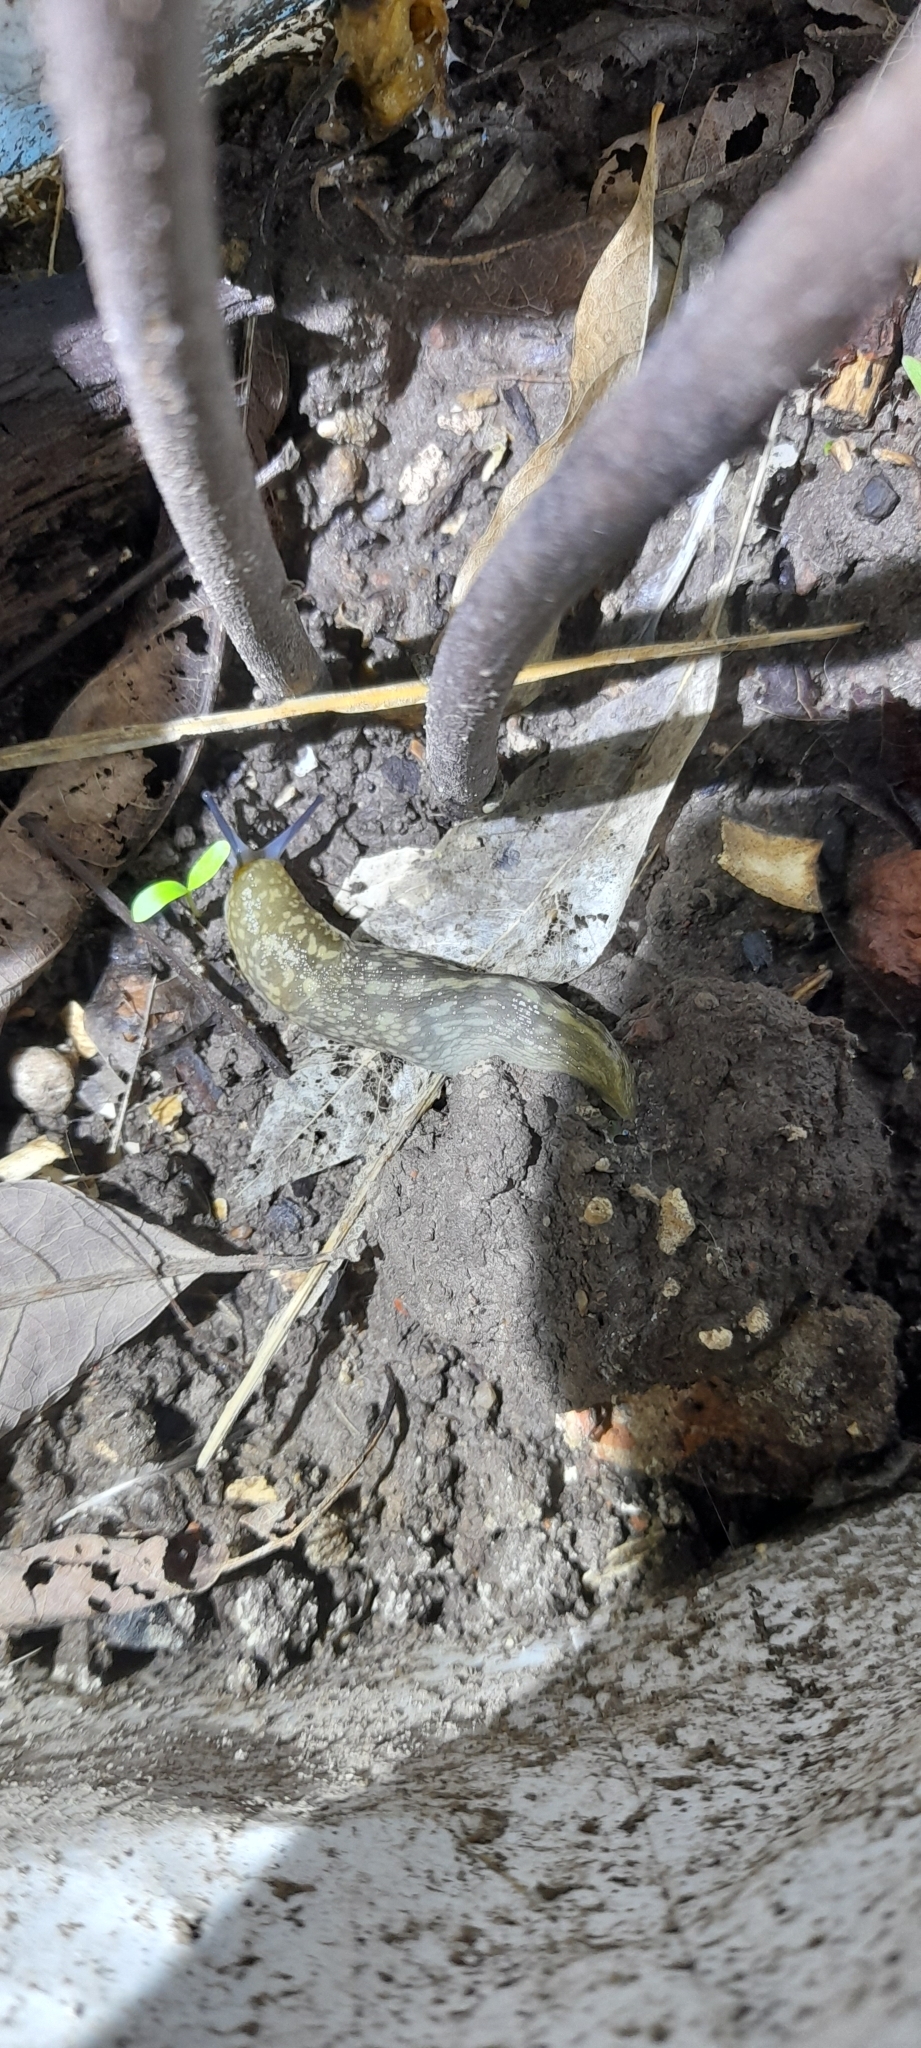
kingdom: Animalia
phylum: Mollusca
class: Gastropoda
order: Stylommatophora
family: Limacidae
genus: Limacus
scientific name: Limacus flavus
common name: Yellow gardenslug
